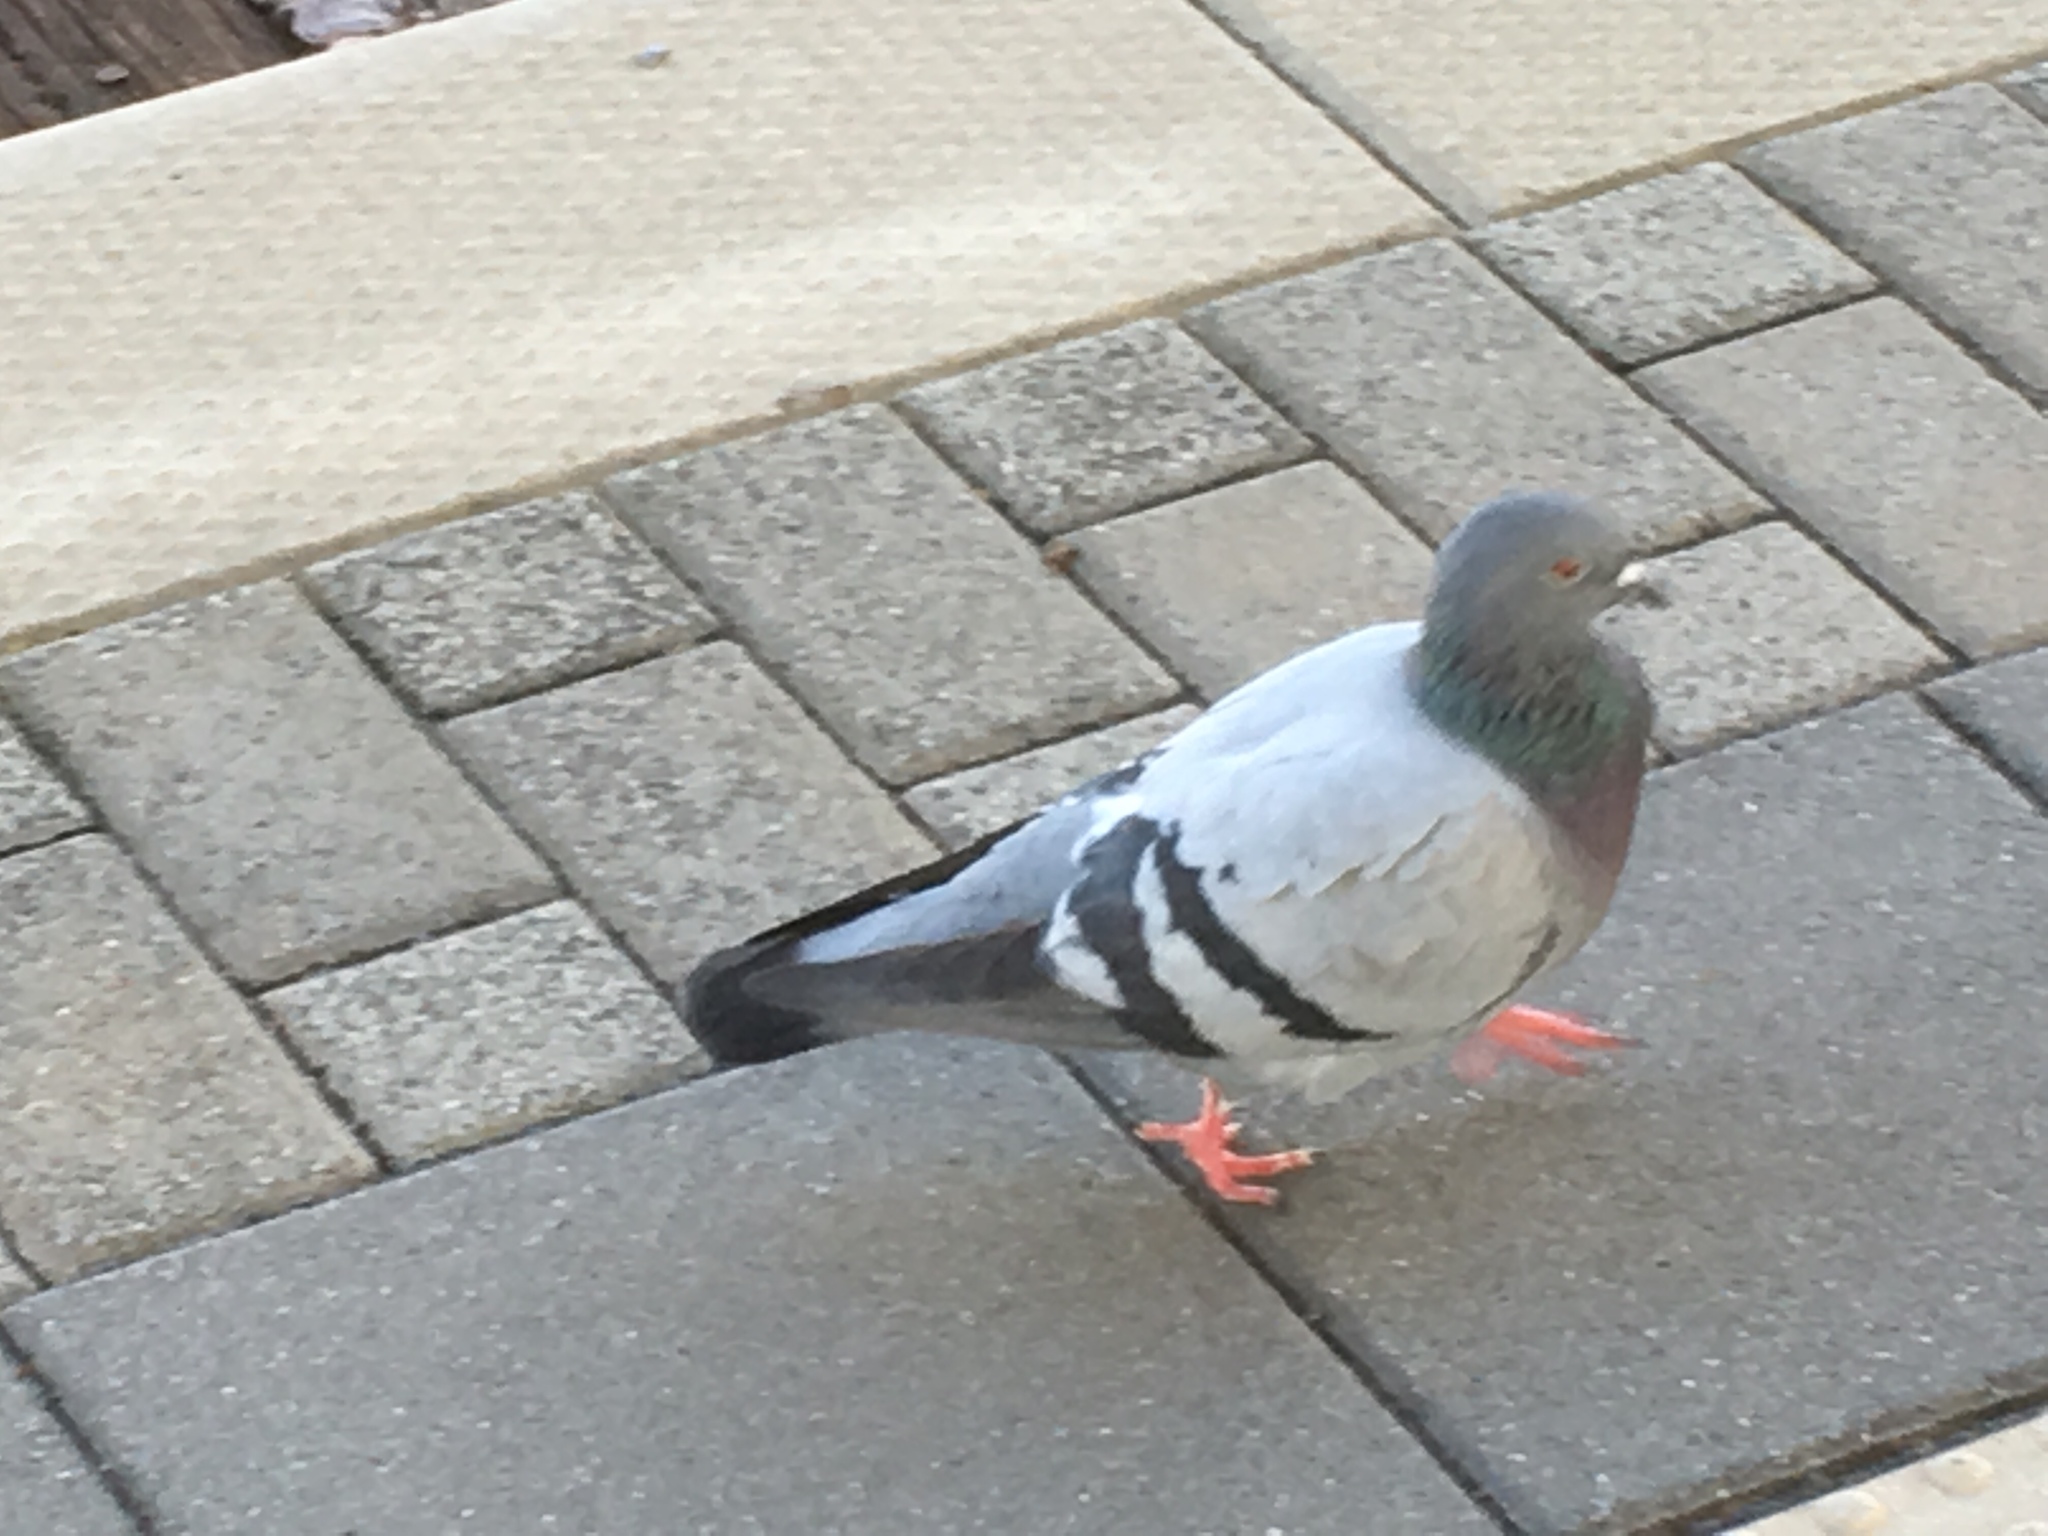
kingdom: Animalia
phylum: Chordata
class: Aves
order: Columbiformes
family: Columbidae
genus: Columba
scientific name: Columba livia
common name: Rock pigeon
